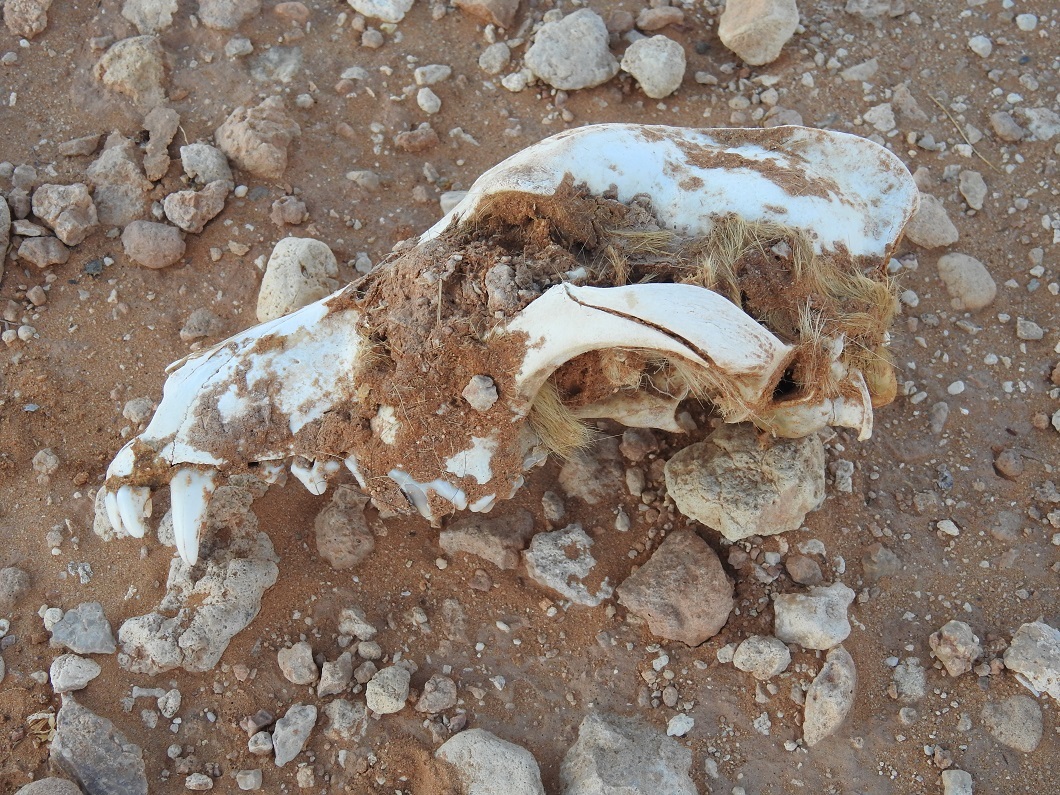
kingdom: Animalia
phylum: Chordata
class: Mammalia
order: Carnivora
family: Canidae
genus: Canis
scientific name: Canis lupus
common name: Gray wolf
